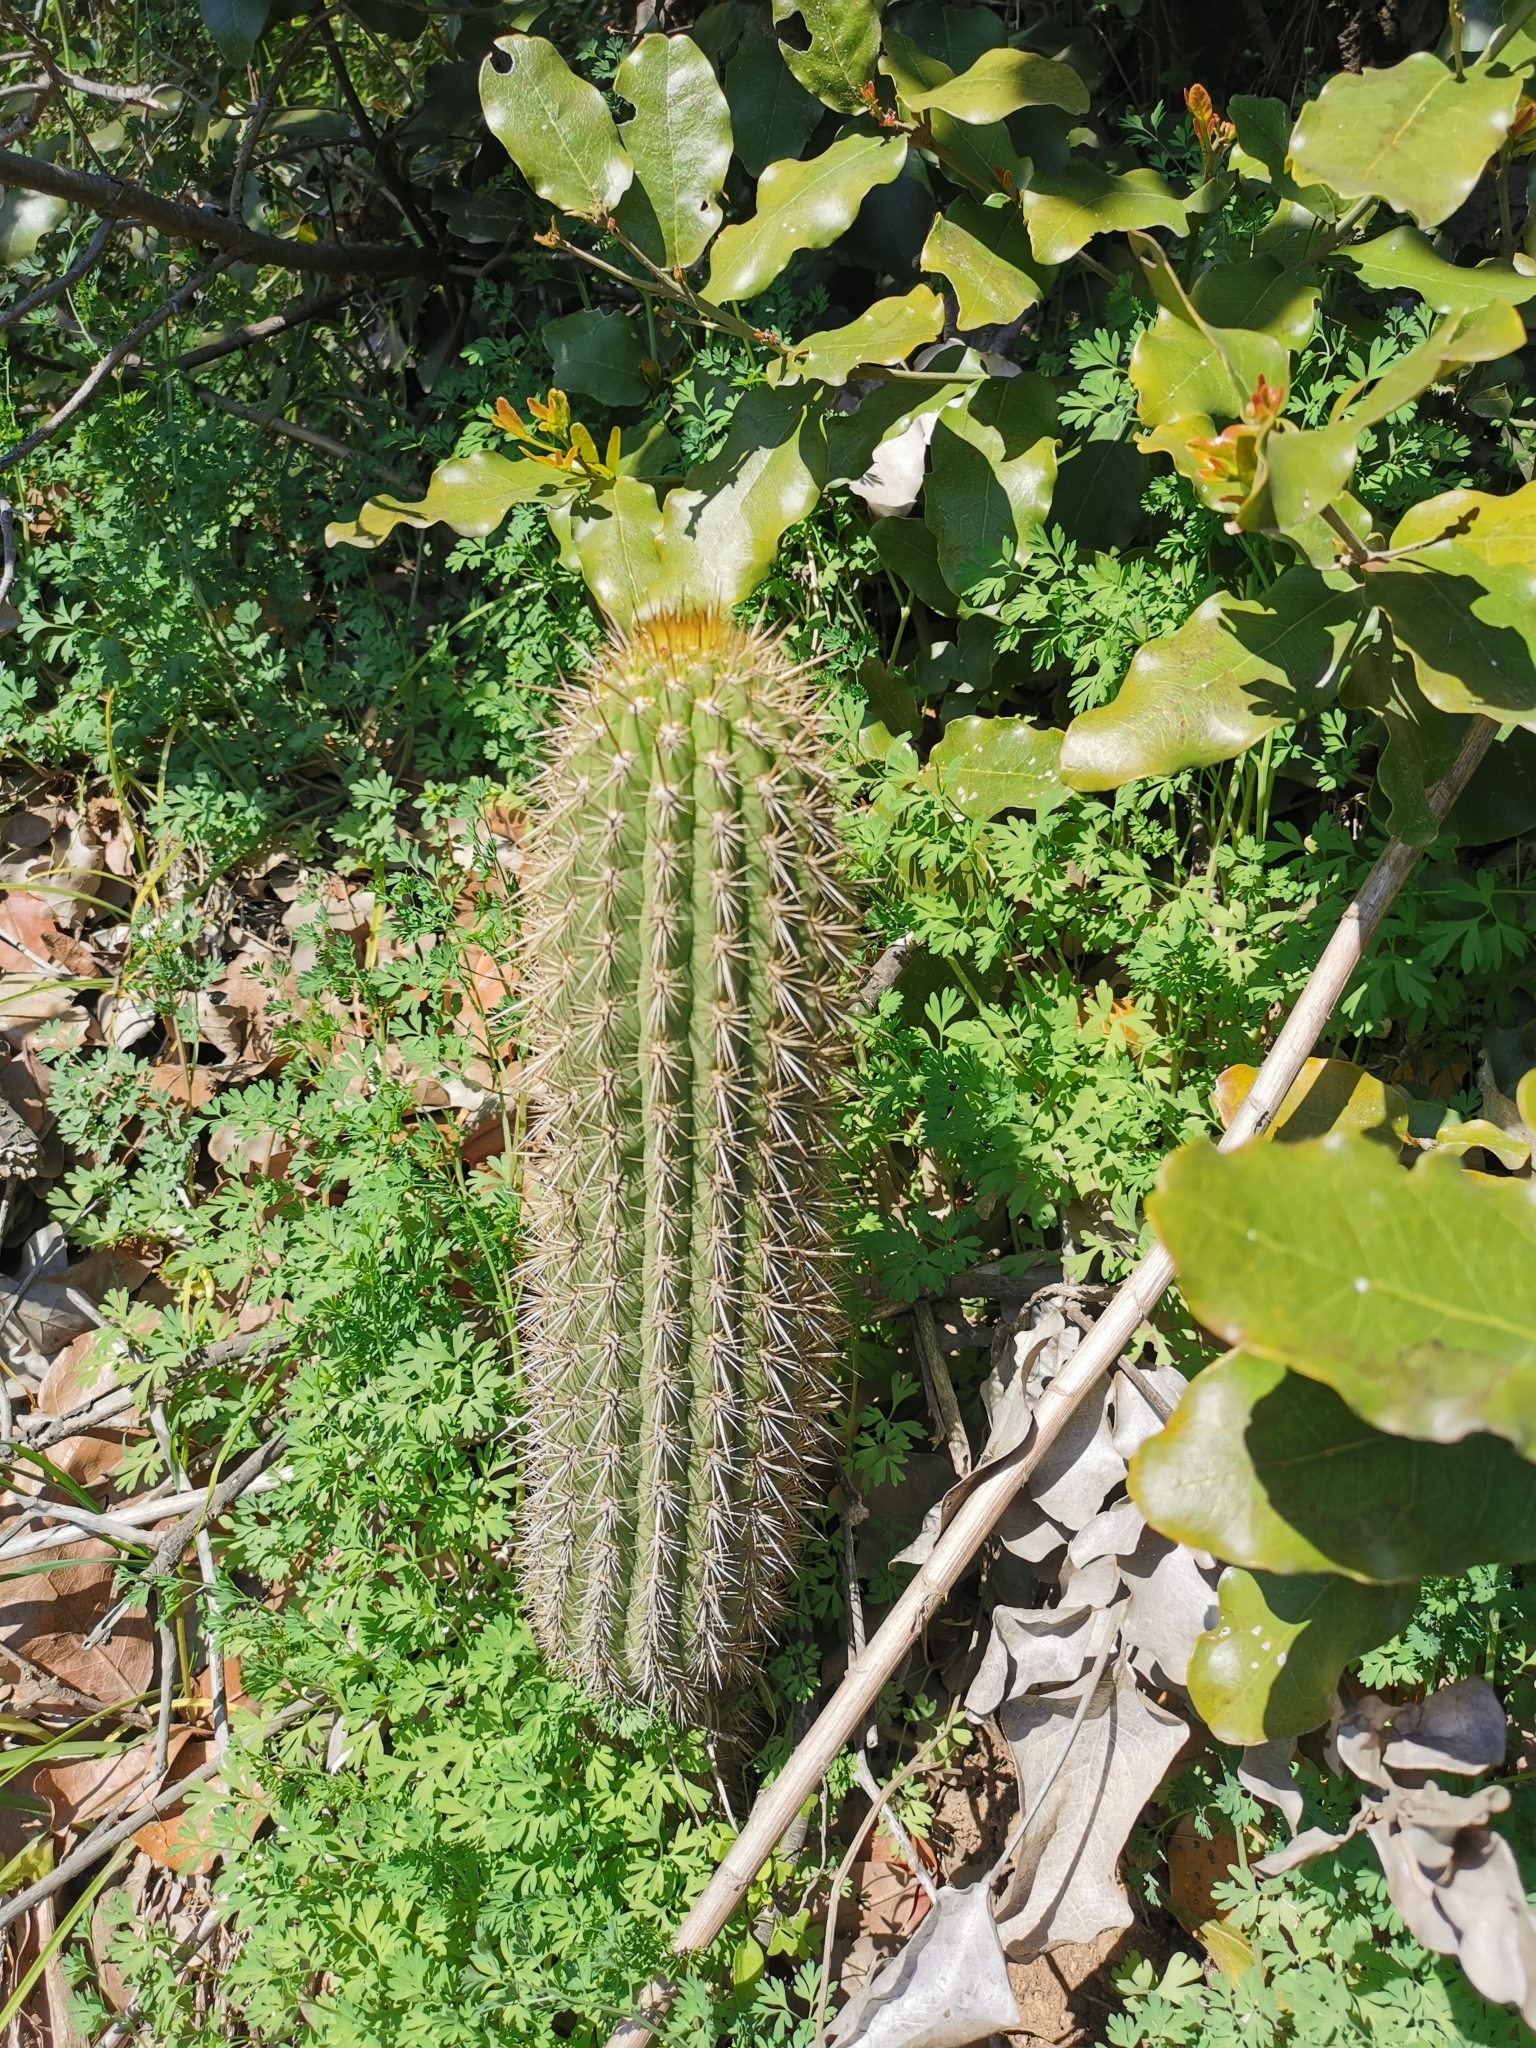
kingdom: Plantae
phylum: Tracheophyta
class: Magnoliopsida
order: Caryophyllales
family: Cactaceae
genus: Leucostele
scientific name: Leucostele litoralis
